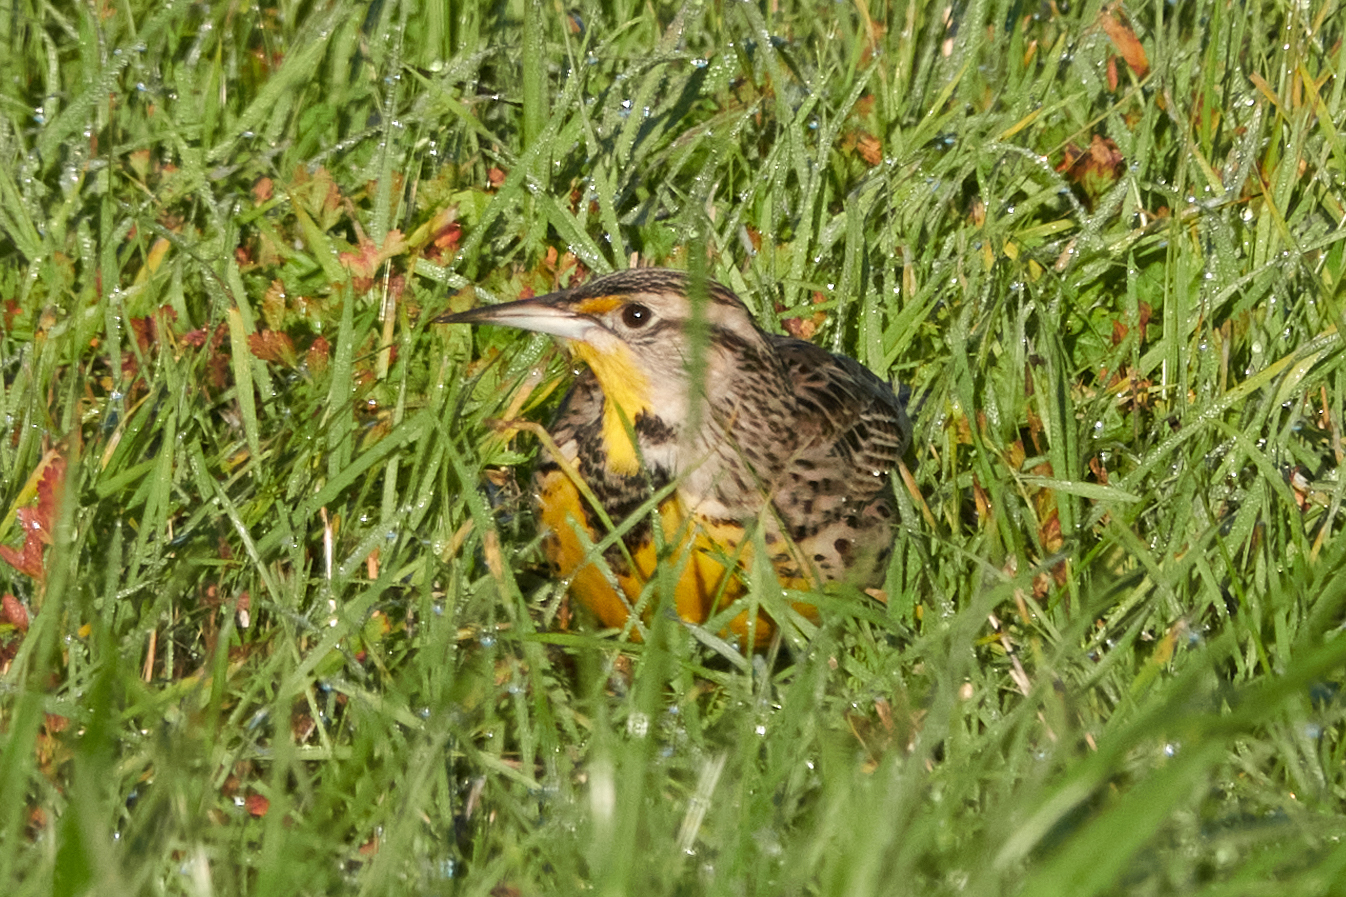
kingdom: Animalia
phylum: Chordata
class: Aves
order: Passeriformes
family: Icteridae
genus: Sturnella
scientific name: Sturnella neglecta
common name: Western meadowlark
